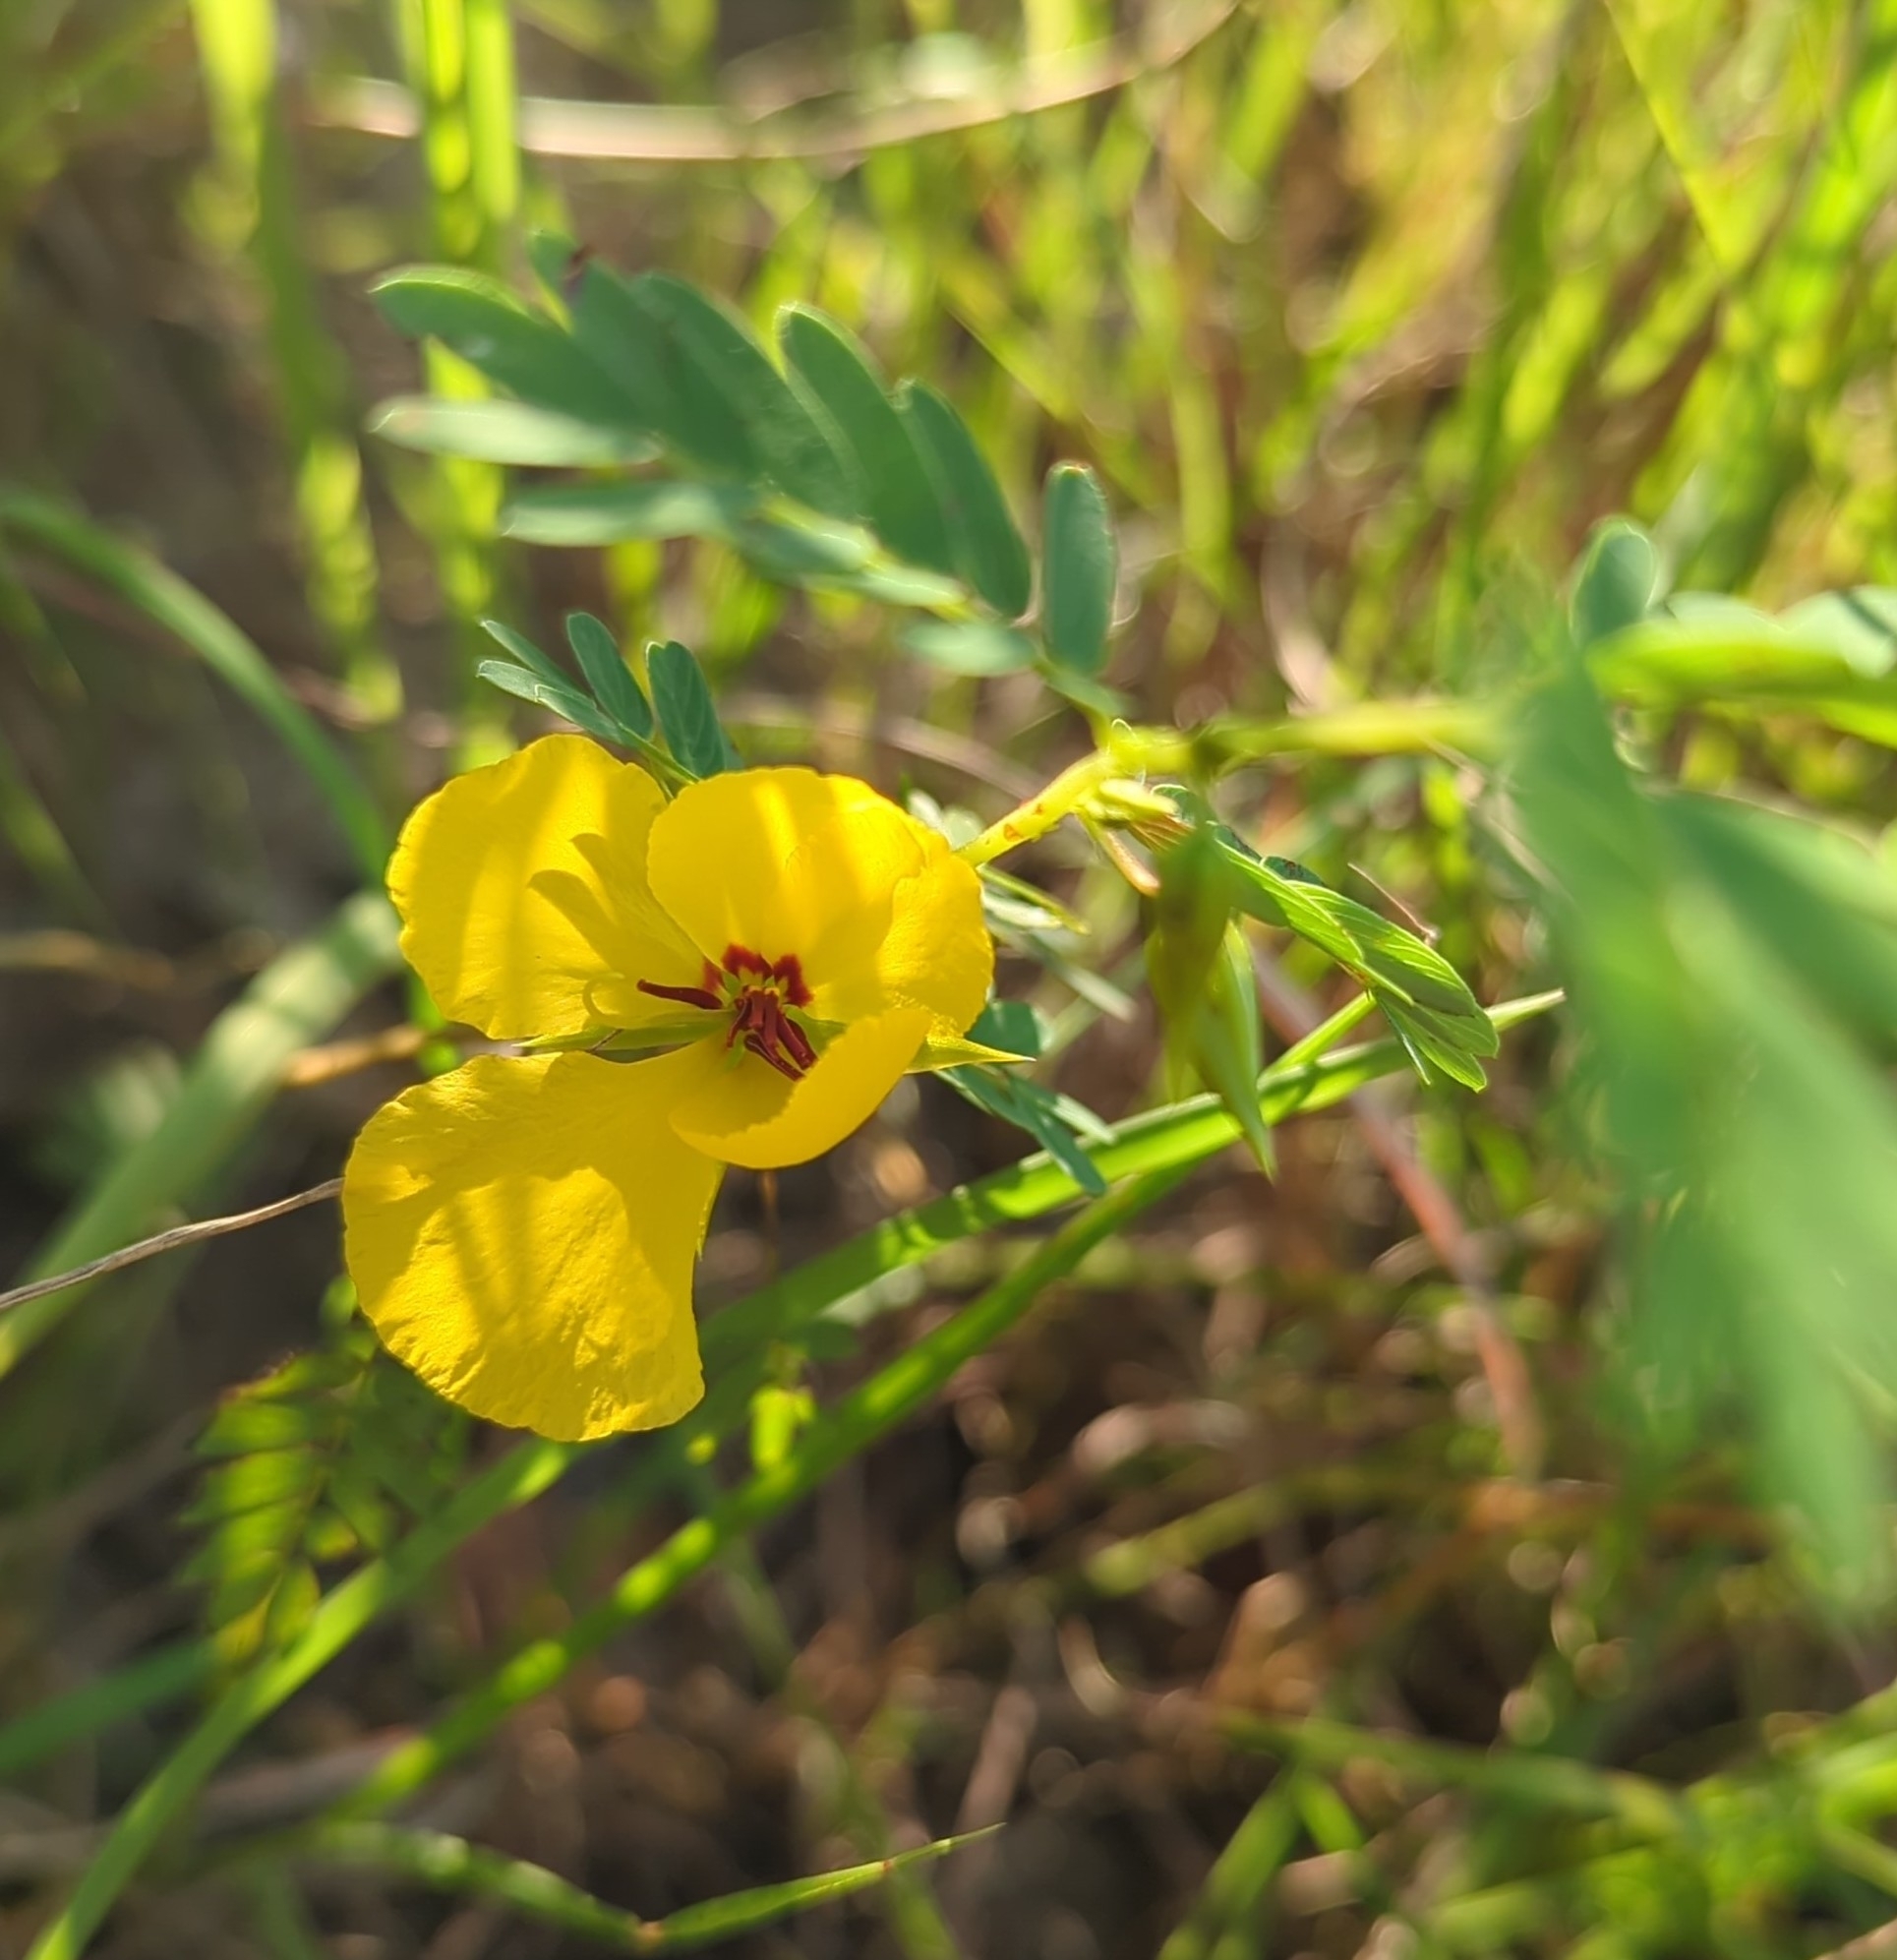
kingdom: Plantae
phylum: Tracheophyta
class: Magnoliopsida
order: Fabales
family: Fabaceae
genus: Chamaecrista
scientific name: Chamaecrista fasciculata
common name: Golden cassia
